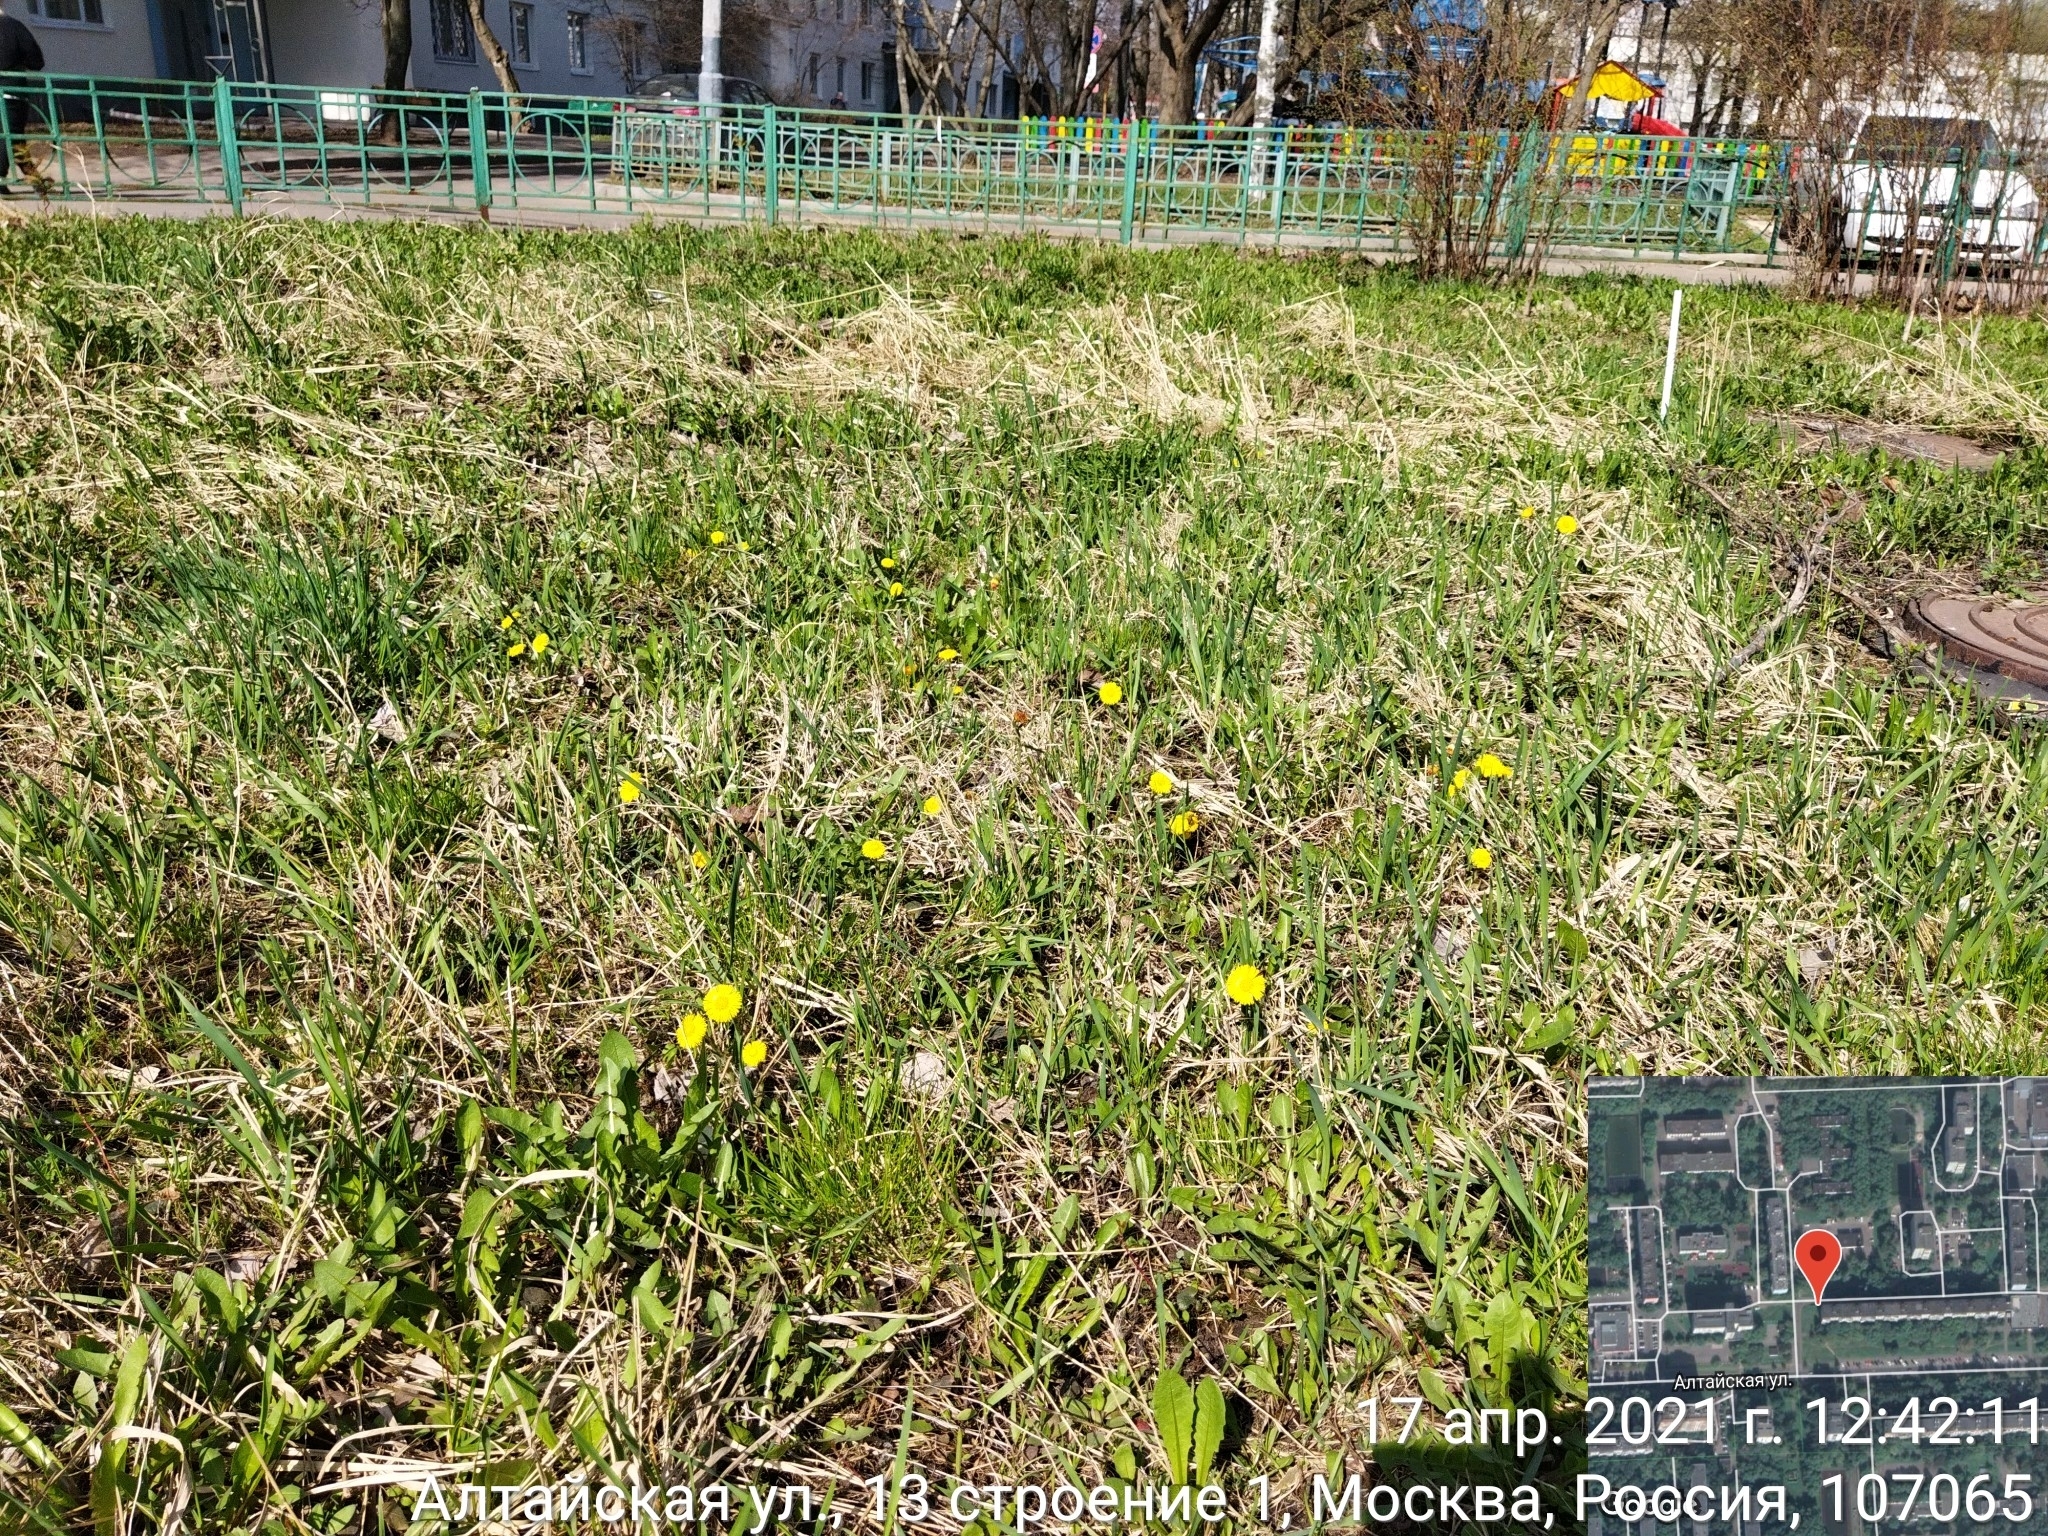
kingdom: Plantae
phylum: Tracheophyta
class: Magnoliopsida
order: Asterales
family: Asteraceae
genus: Tussilago
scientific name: Tussilago farfara
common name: Coltsfoot
